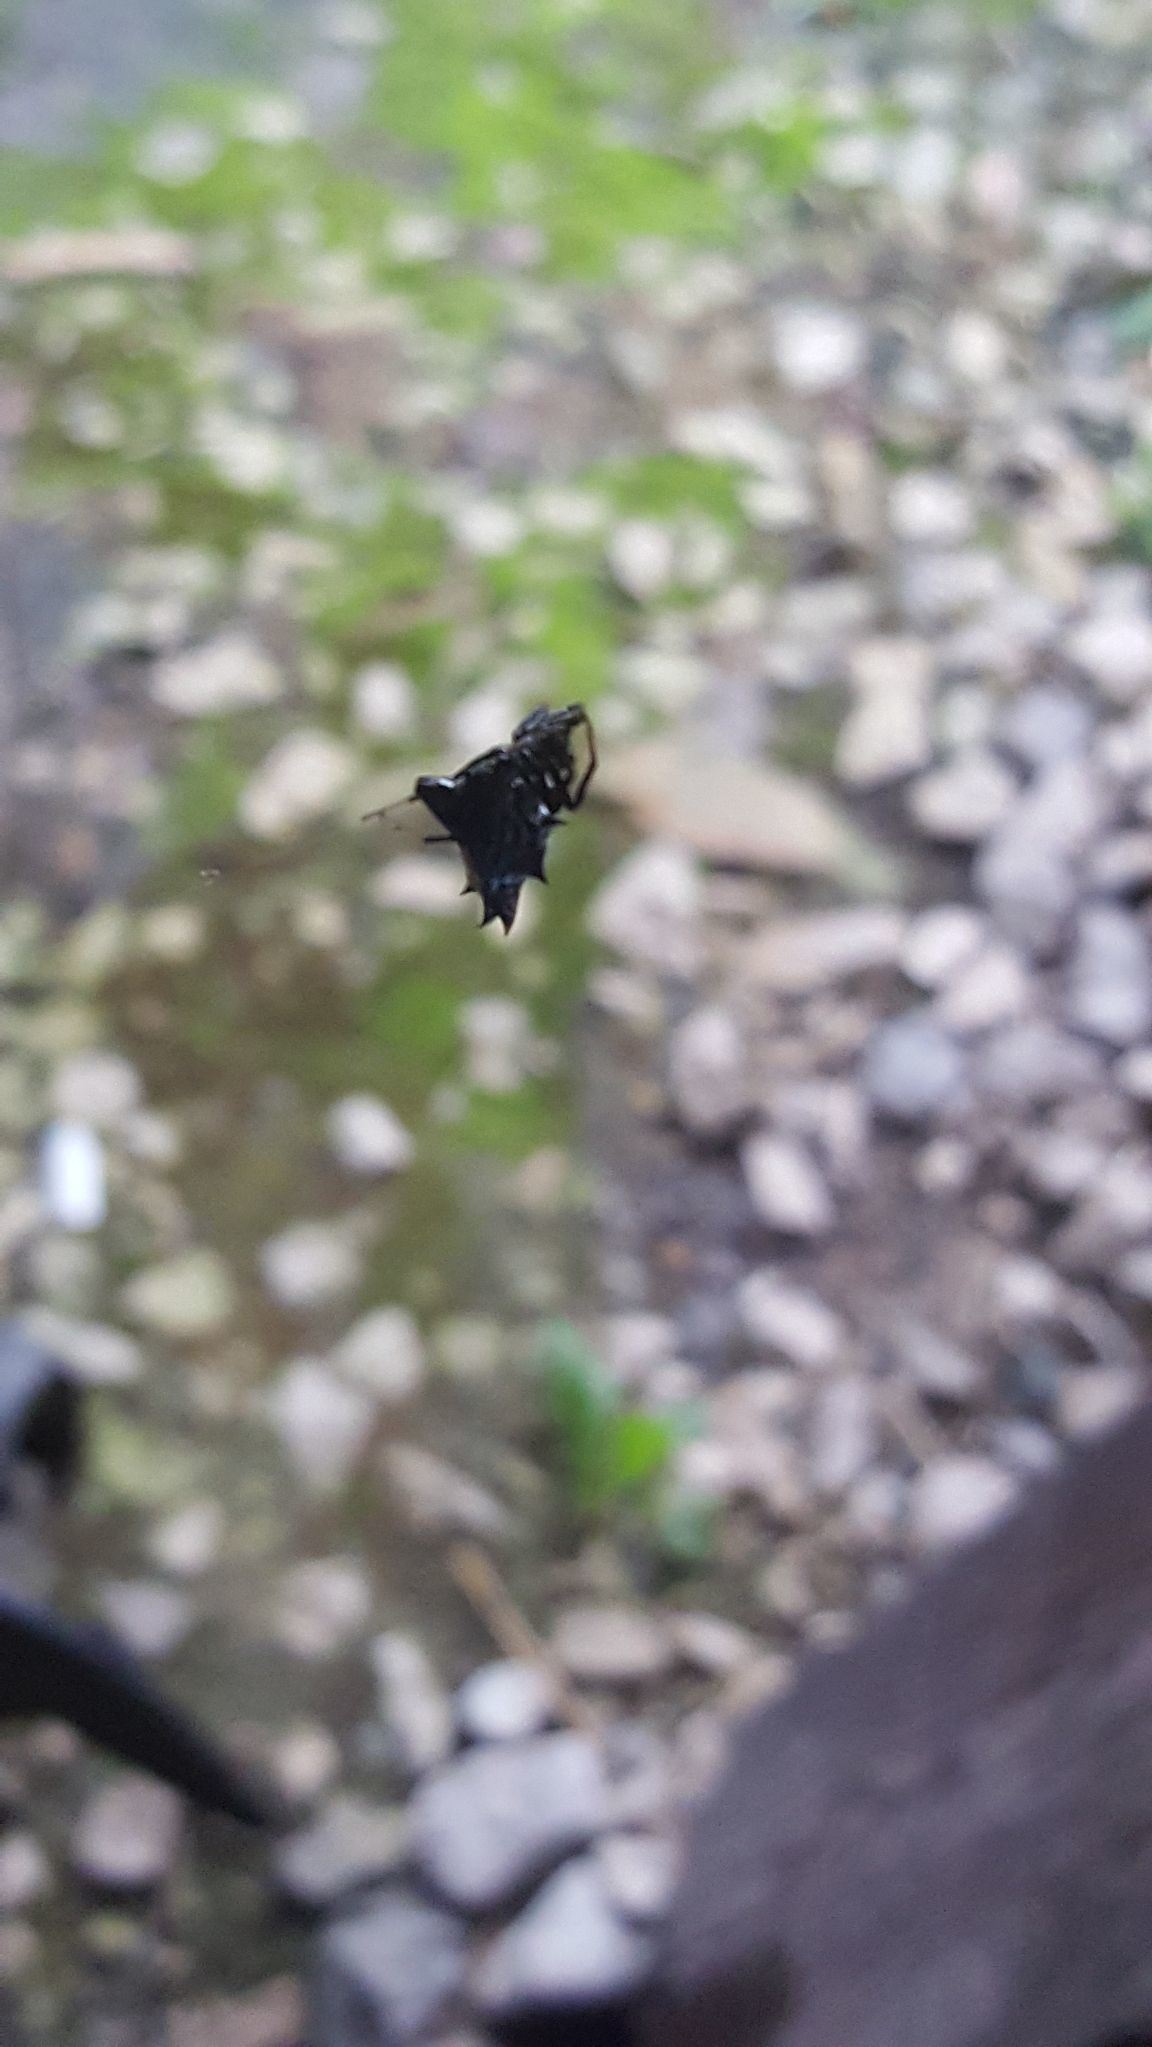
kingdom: Animalia
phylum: Arthropoda
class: Arachnida
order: Araneae
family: Araneidae
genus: Micrathena
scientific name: Micrathena gracilis
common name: Orb weavers
